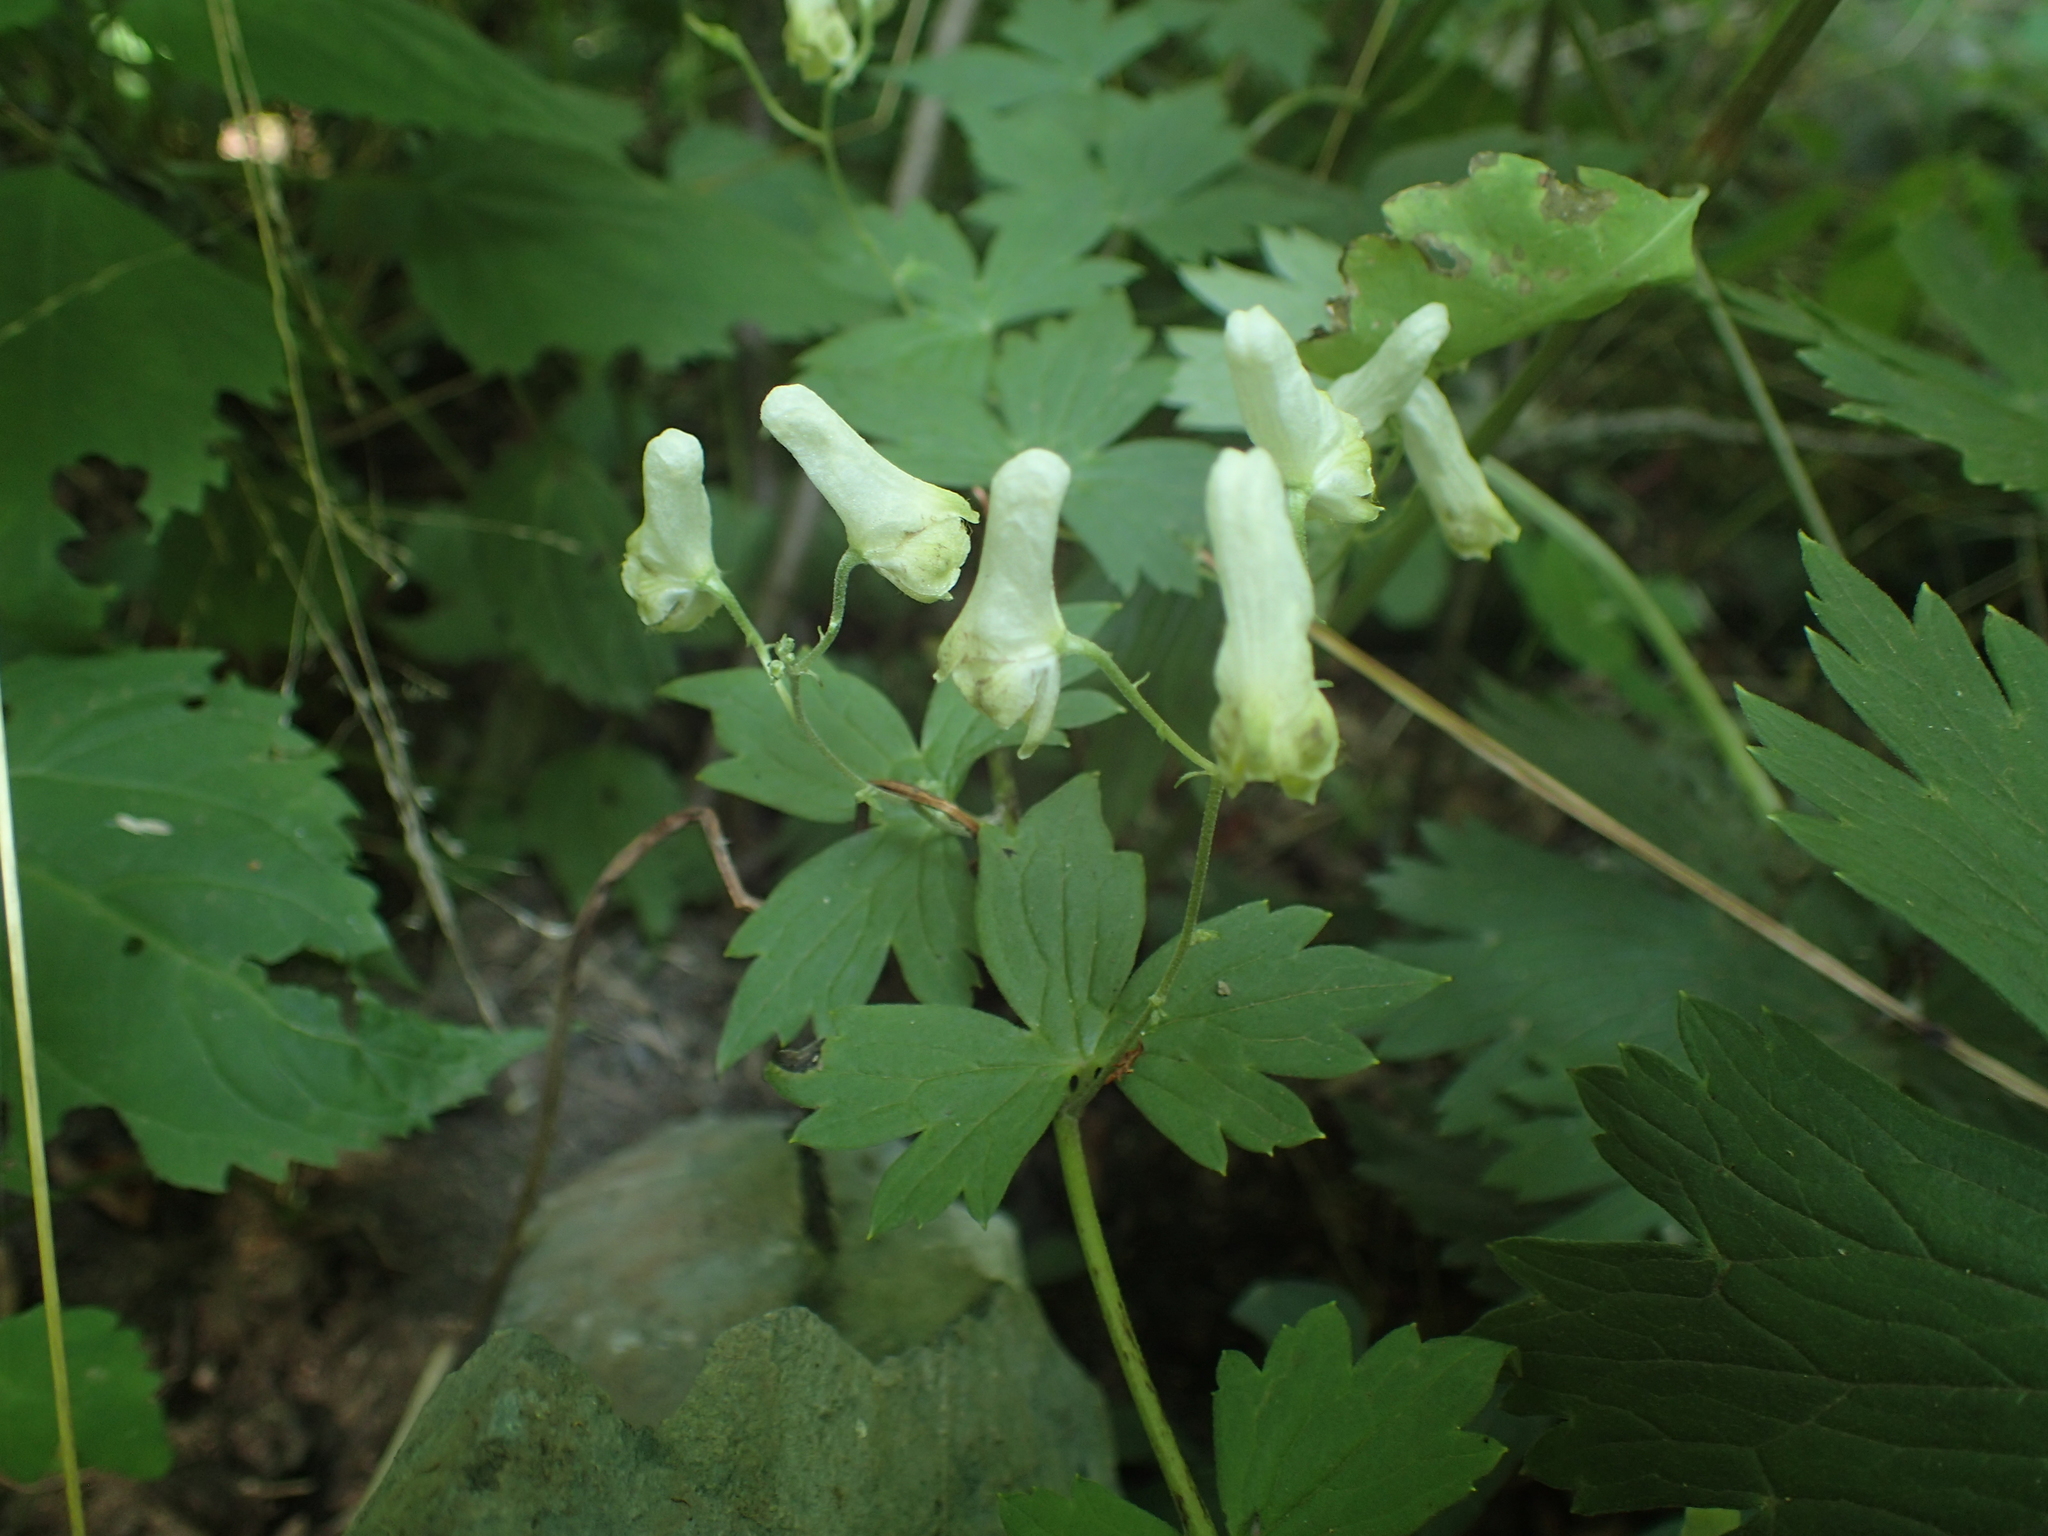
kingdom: Plantae
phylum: Tracheophyta
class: Magnoliopsida
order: Ranunculales
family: Ranunculaceae
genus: Aconitum
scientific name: Aconitum reclinatum
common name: Trailing wolfsbane
